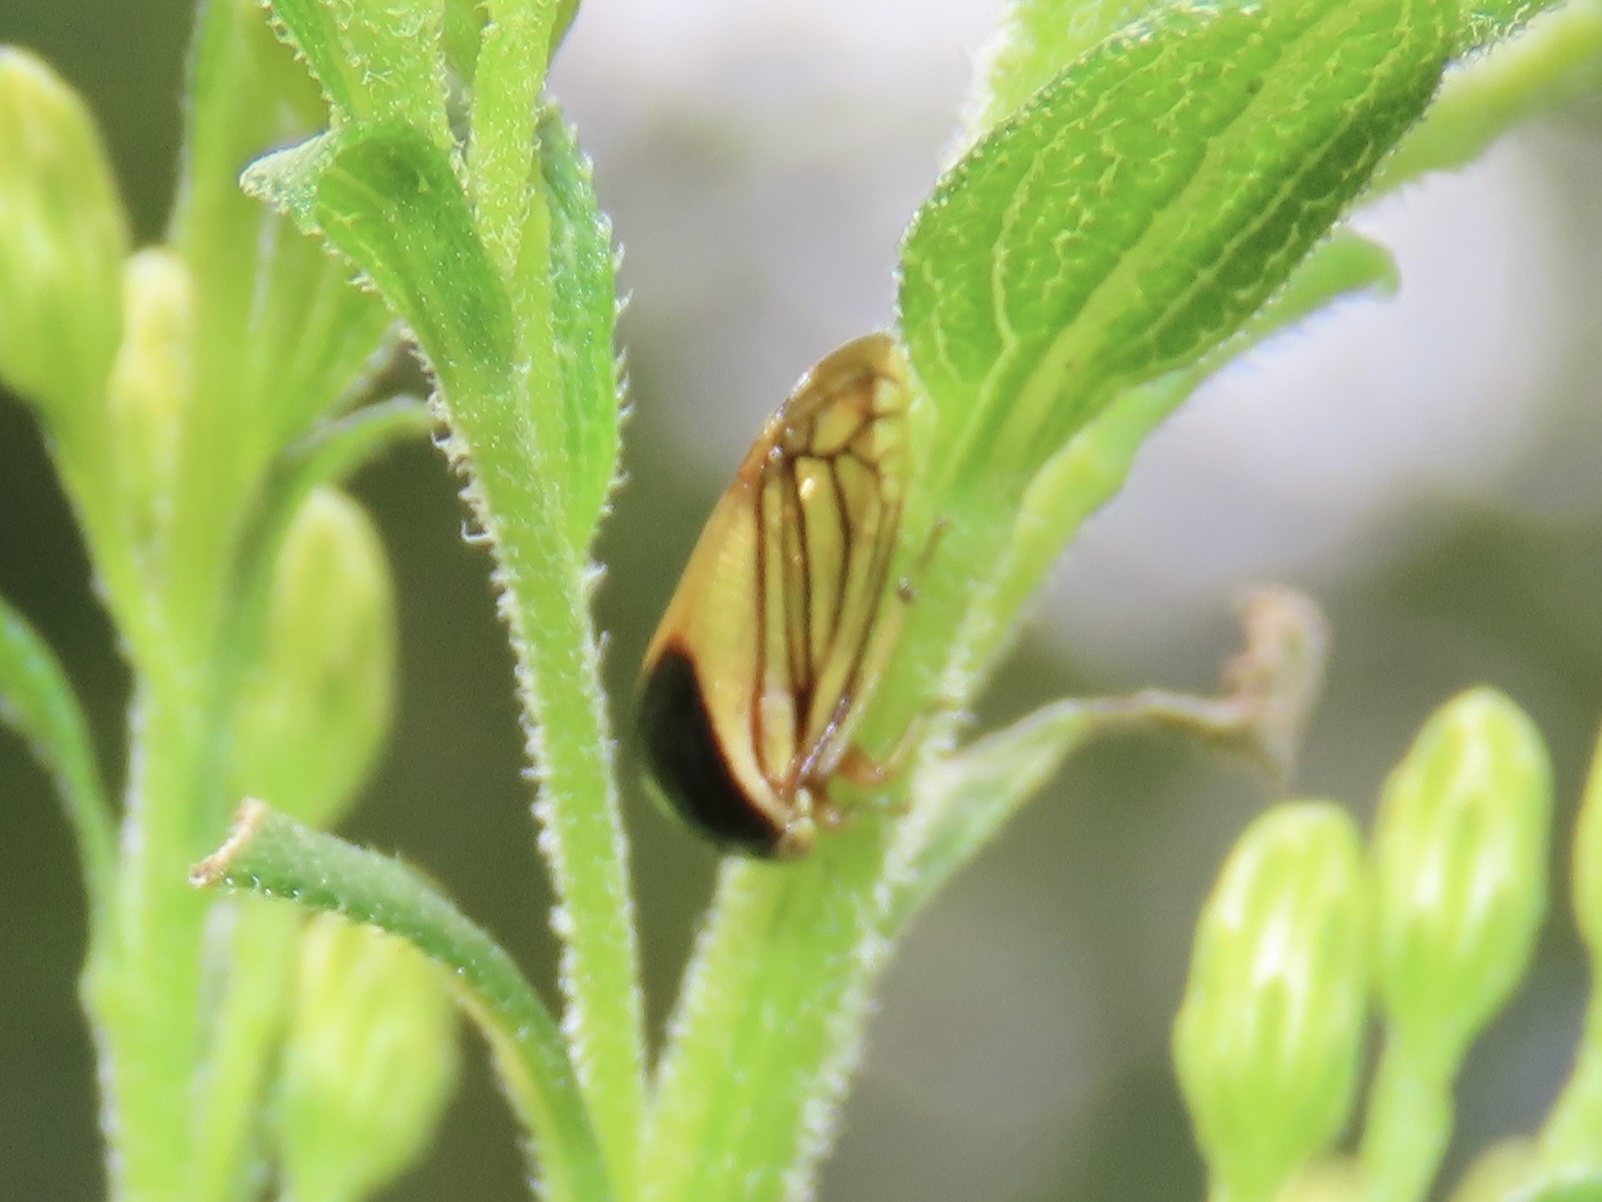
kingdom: Animalia
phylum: Arthropoda
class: Insecta
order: Hemiptera
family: Membracidae
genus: Acutalis
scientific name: Acutalis tartarea
